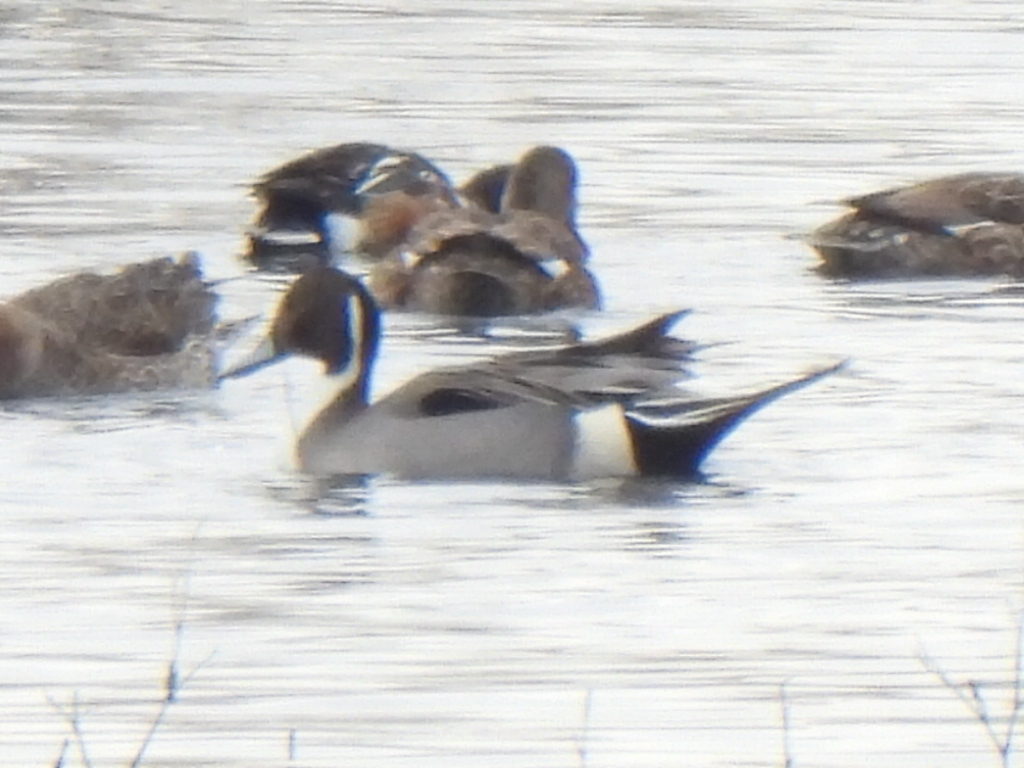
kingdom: Animalia
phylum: Chordata
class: Aves
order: Anseriformes
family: Anatidae
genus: Anas
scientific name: Anas acuta
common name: Northern pintail
